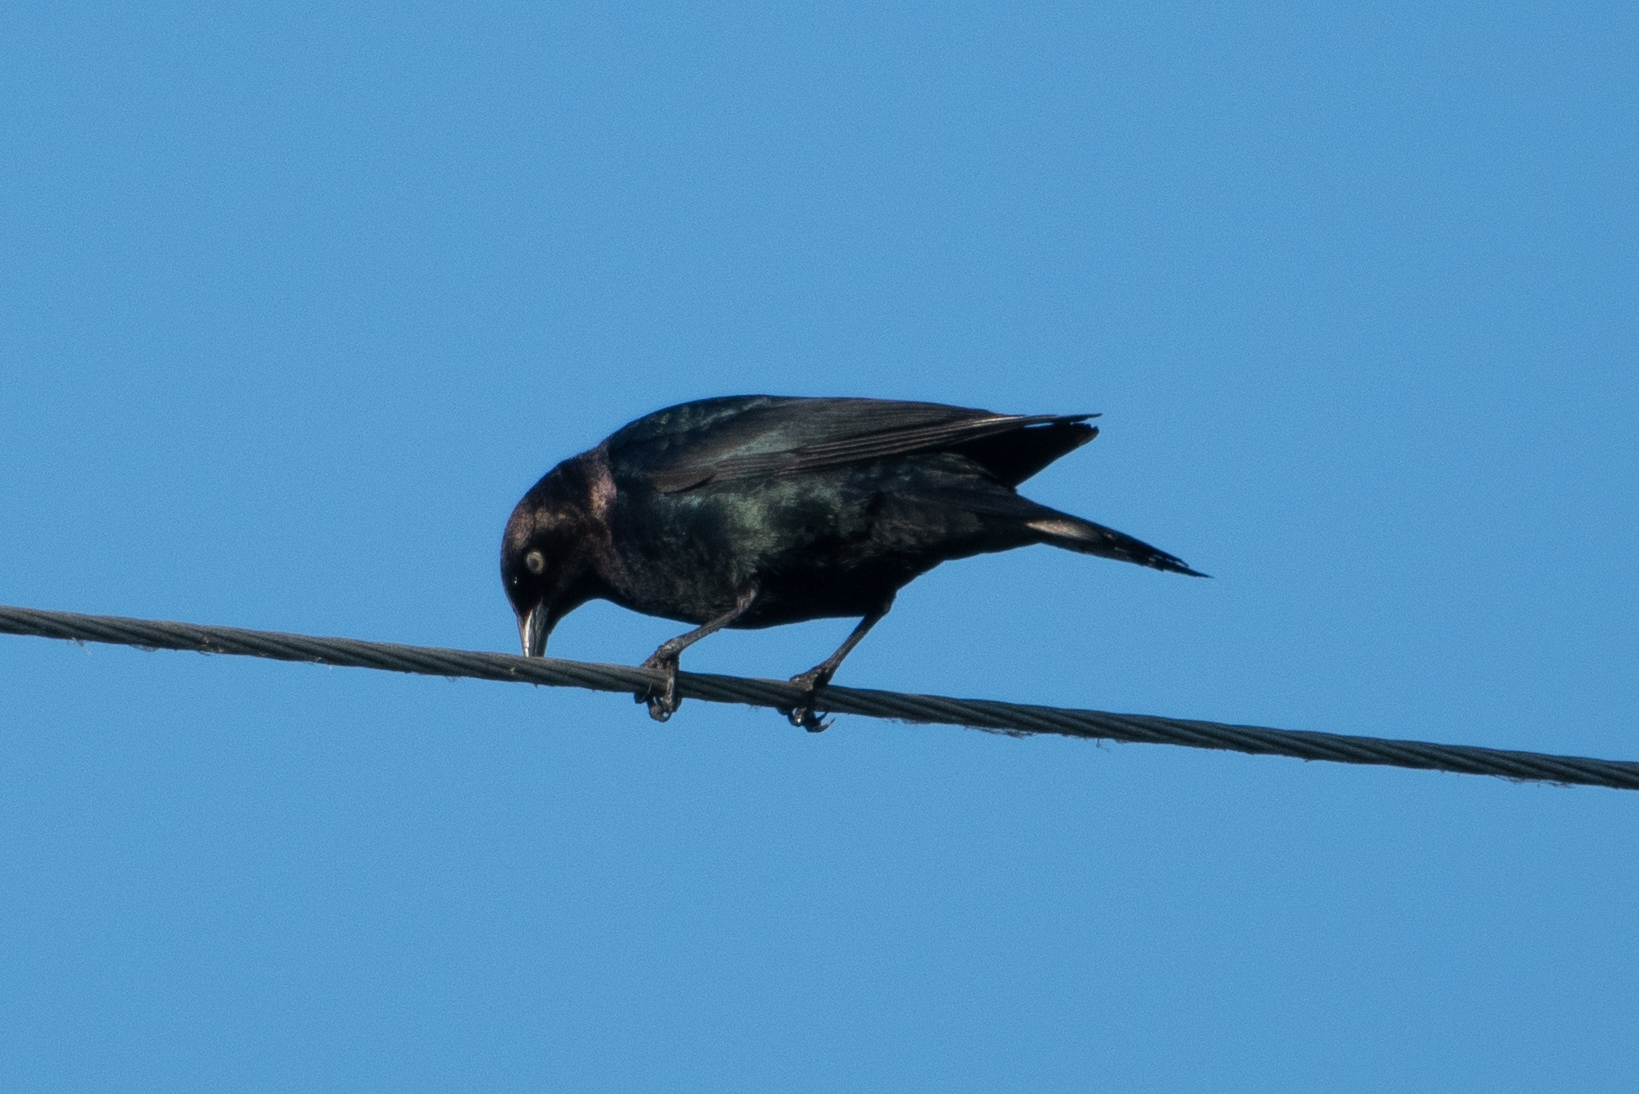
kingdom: Animalia
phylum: Chordata
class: Aves
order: Passeriformes
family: Icteridae
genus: Euphagus
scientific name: Euphagus cyanocephalus
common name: Brewer's blackbird
